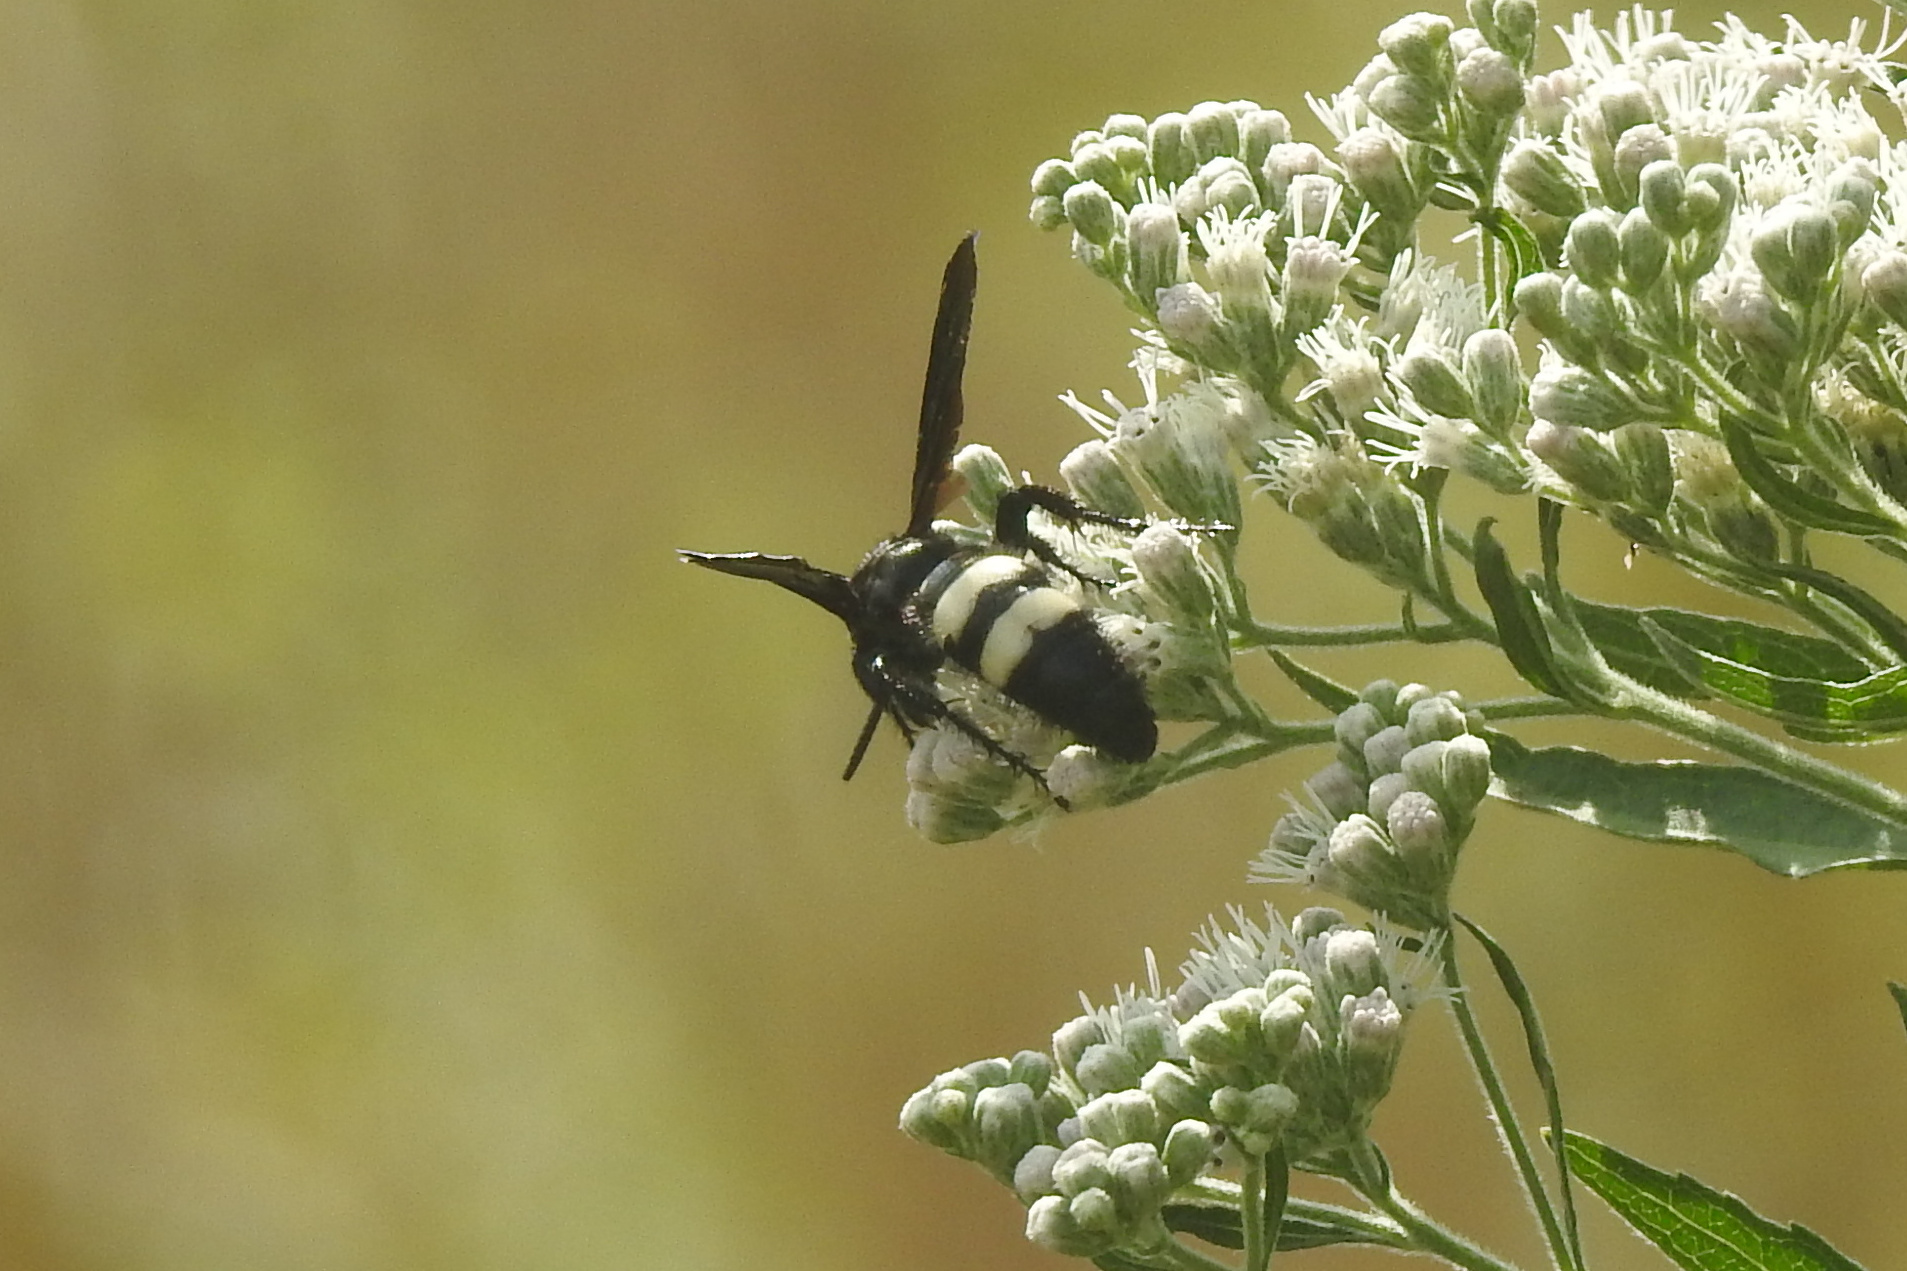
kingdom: Animalia
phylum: Arthropoda
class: Insecta
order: Hymenoptera
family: Scoliidae
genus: Scolia
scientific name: Scolia bicincta
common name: Double-banded scoliid wasp
